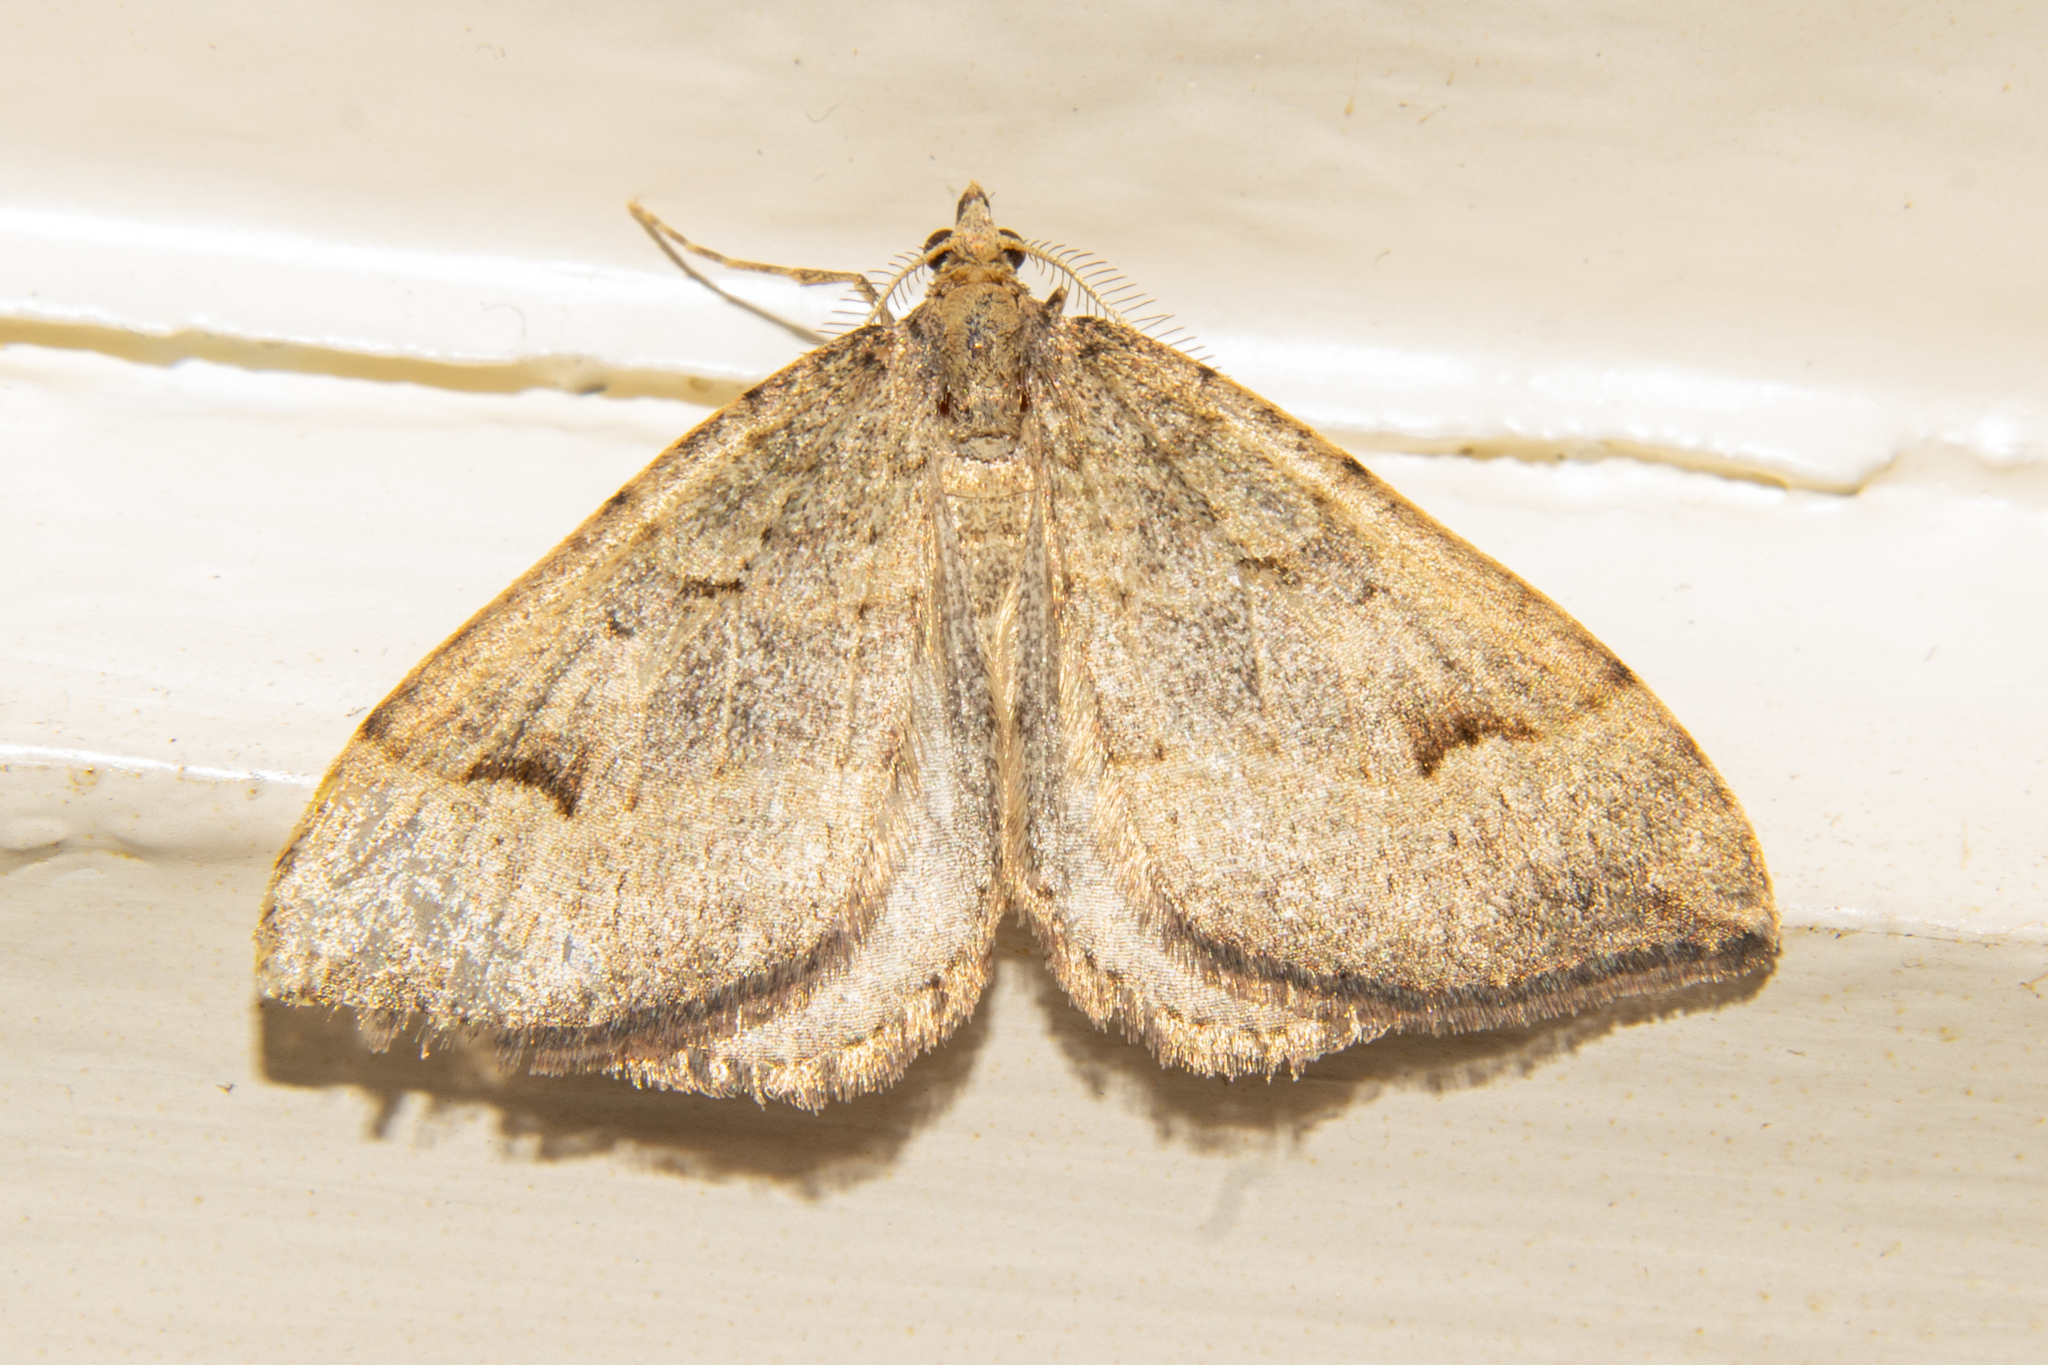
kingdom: Animalia
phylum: Arthropoda
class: Insecta
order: Lepidoptera
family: Geometridae
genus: Epyaxa
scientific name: Epyaxa rosearia
